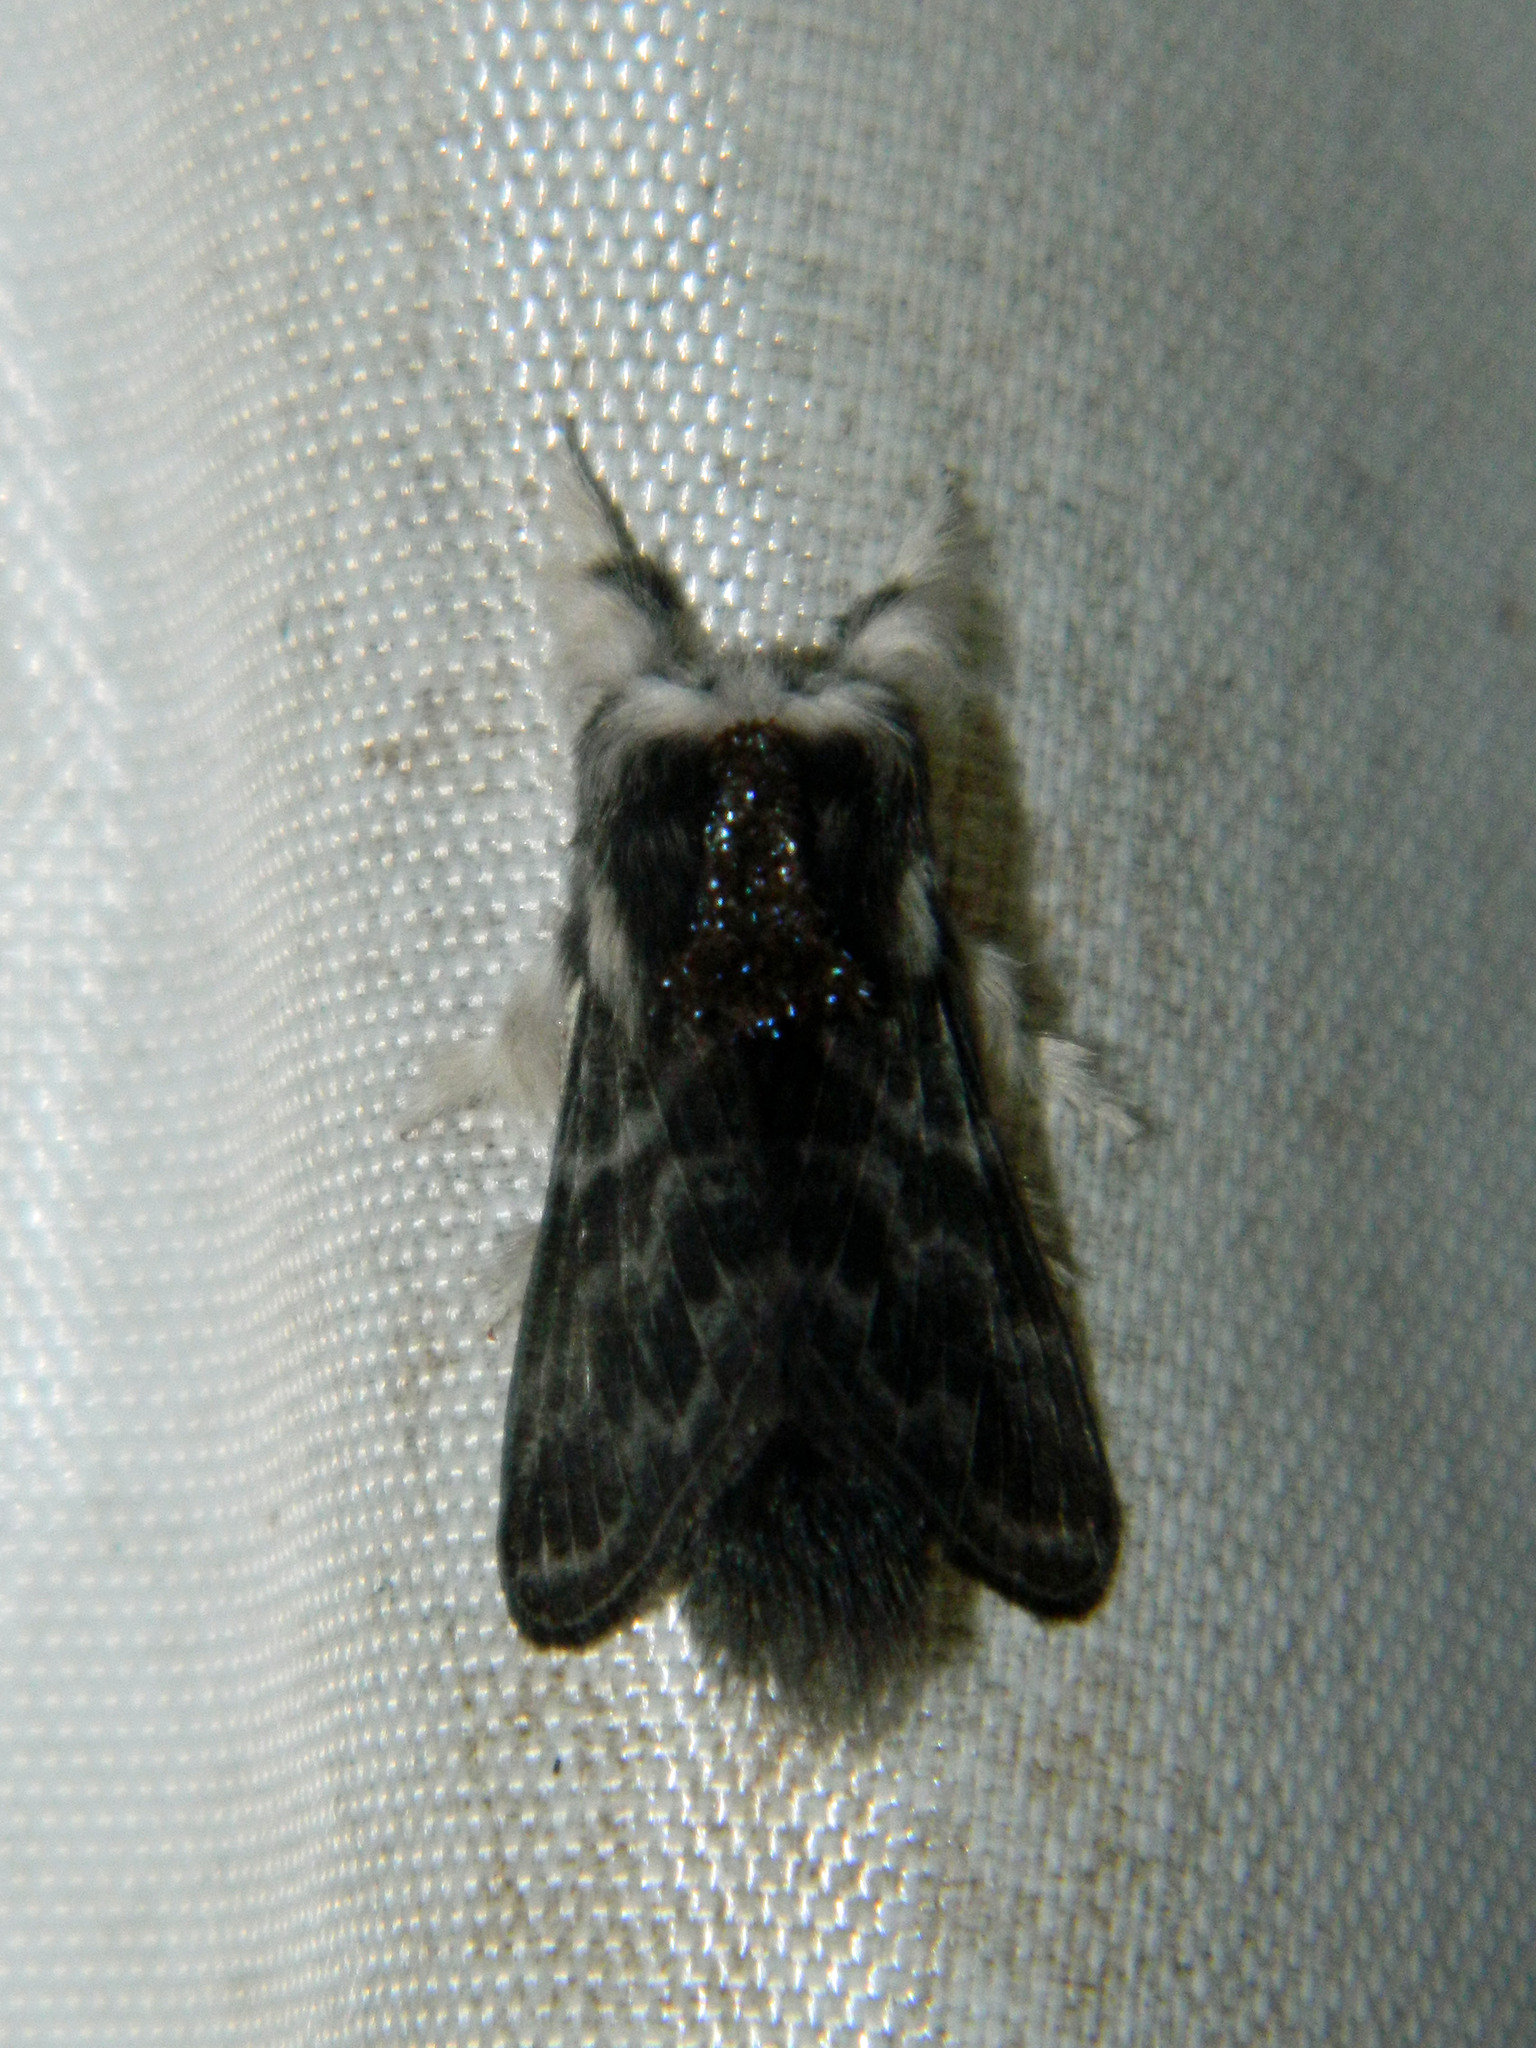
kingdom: Animalia
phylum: Arthropoda
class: Insecta
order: Lepidoptera
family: Lasiocampidae
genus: Tolype
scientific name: Tolype laricis
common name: Larch tolype moth
